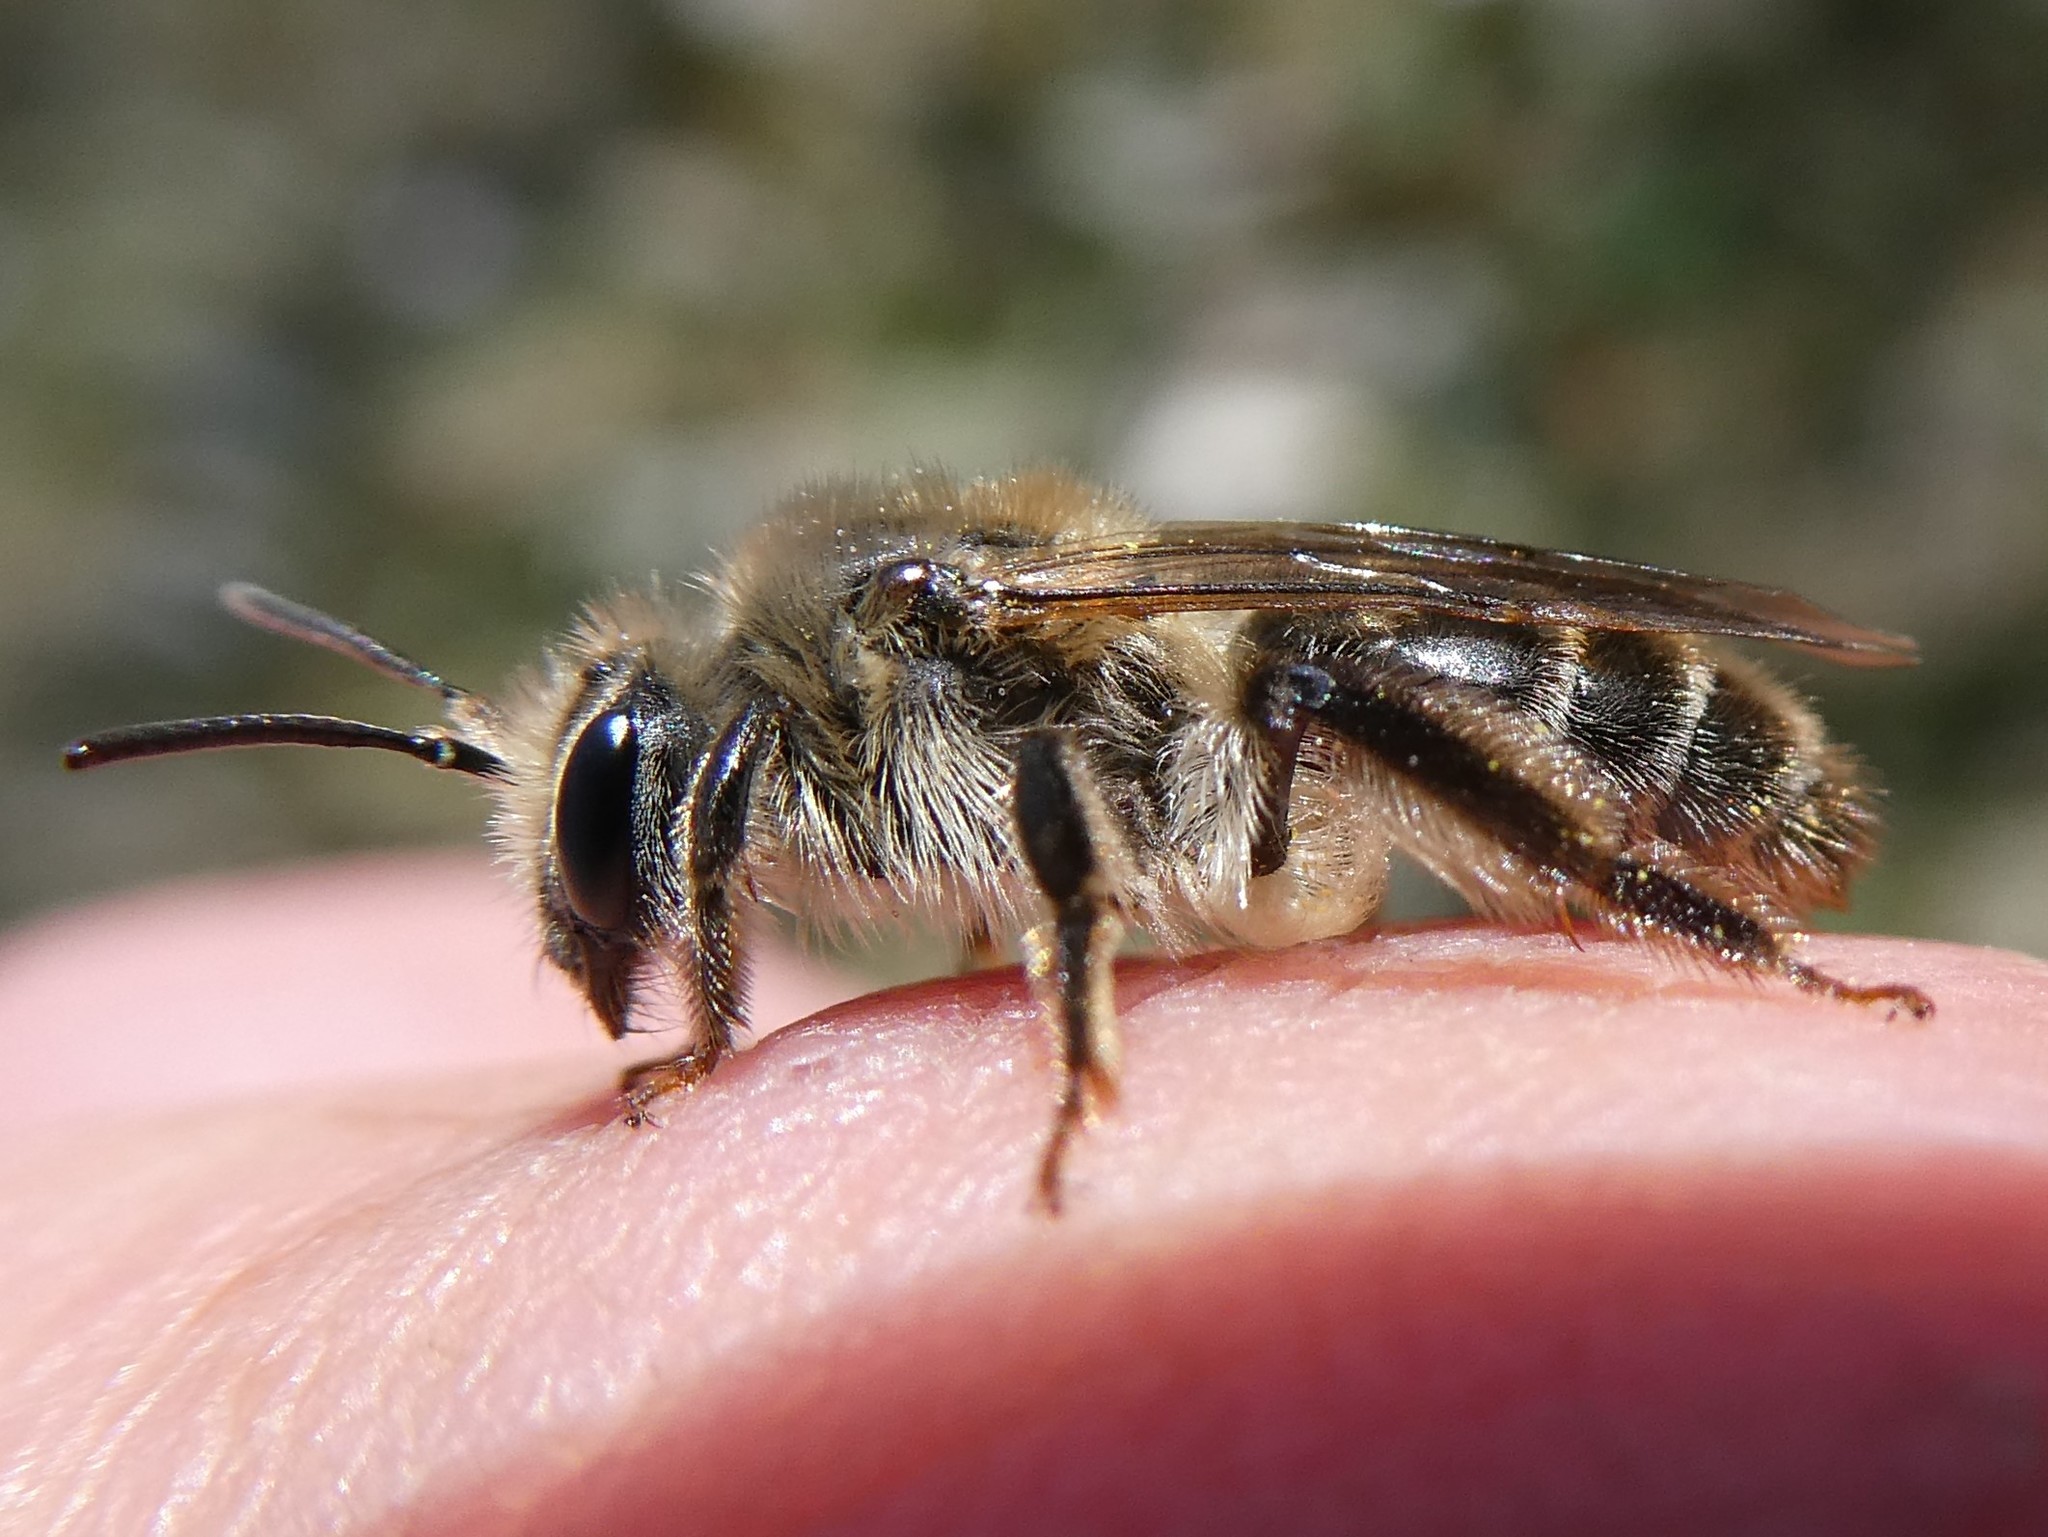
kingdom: Animalia
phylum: Arthropoda
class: Insecta
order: Hymenoptera
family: Andrenidae
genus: Andrena
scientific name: Andrena erythronii
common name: Trout-lily mining bee
